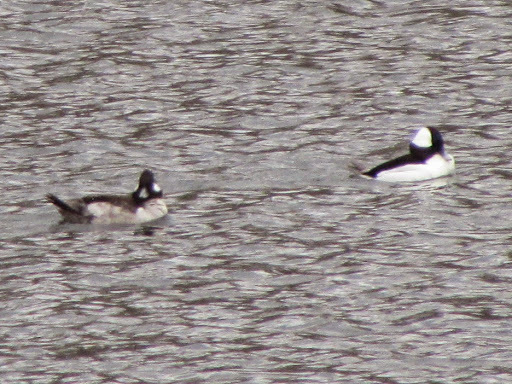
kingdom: Animalia
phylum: Chordata
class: Aves
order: Anseriformes
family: Anatidae
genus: Bucephala
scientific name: Bucephala albeola
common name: Bufflehead
